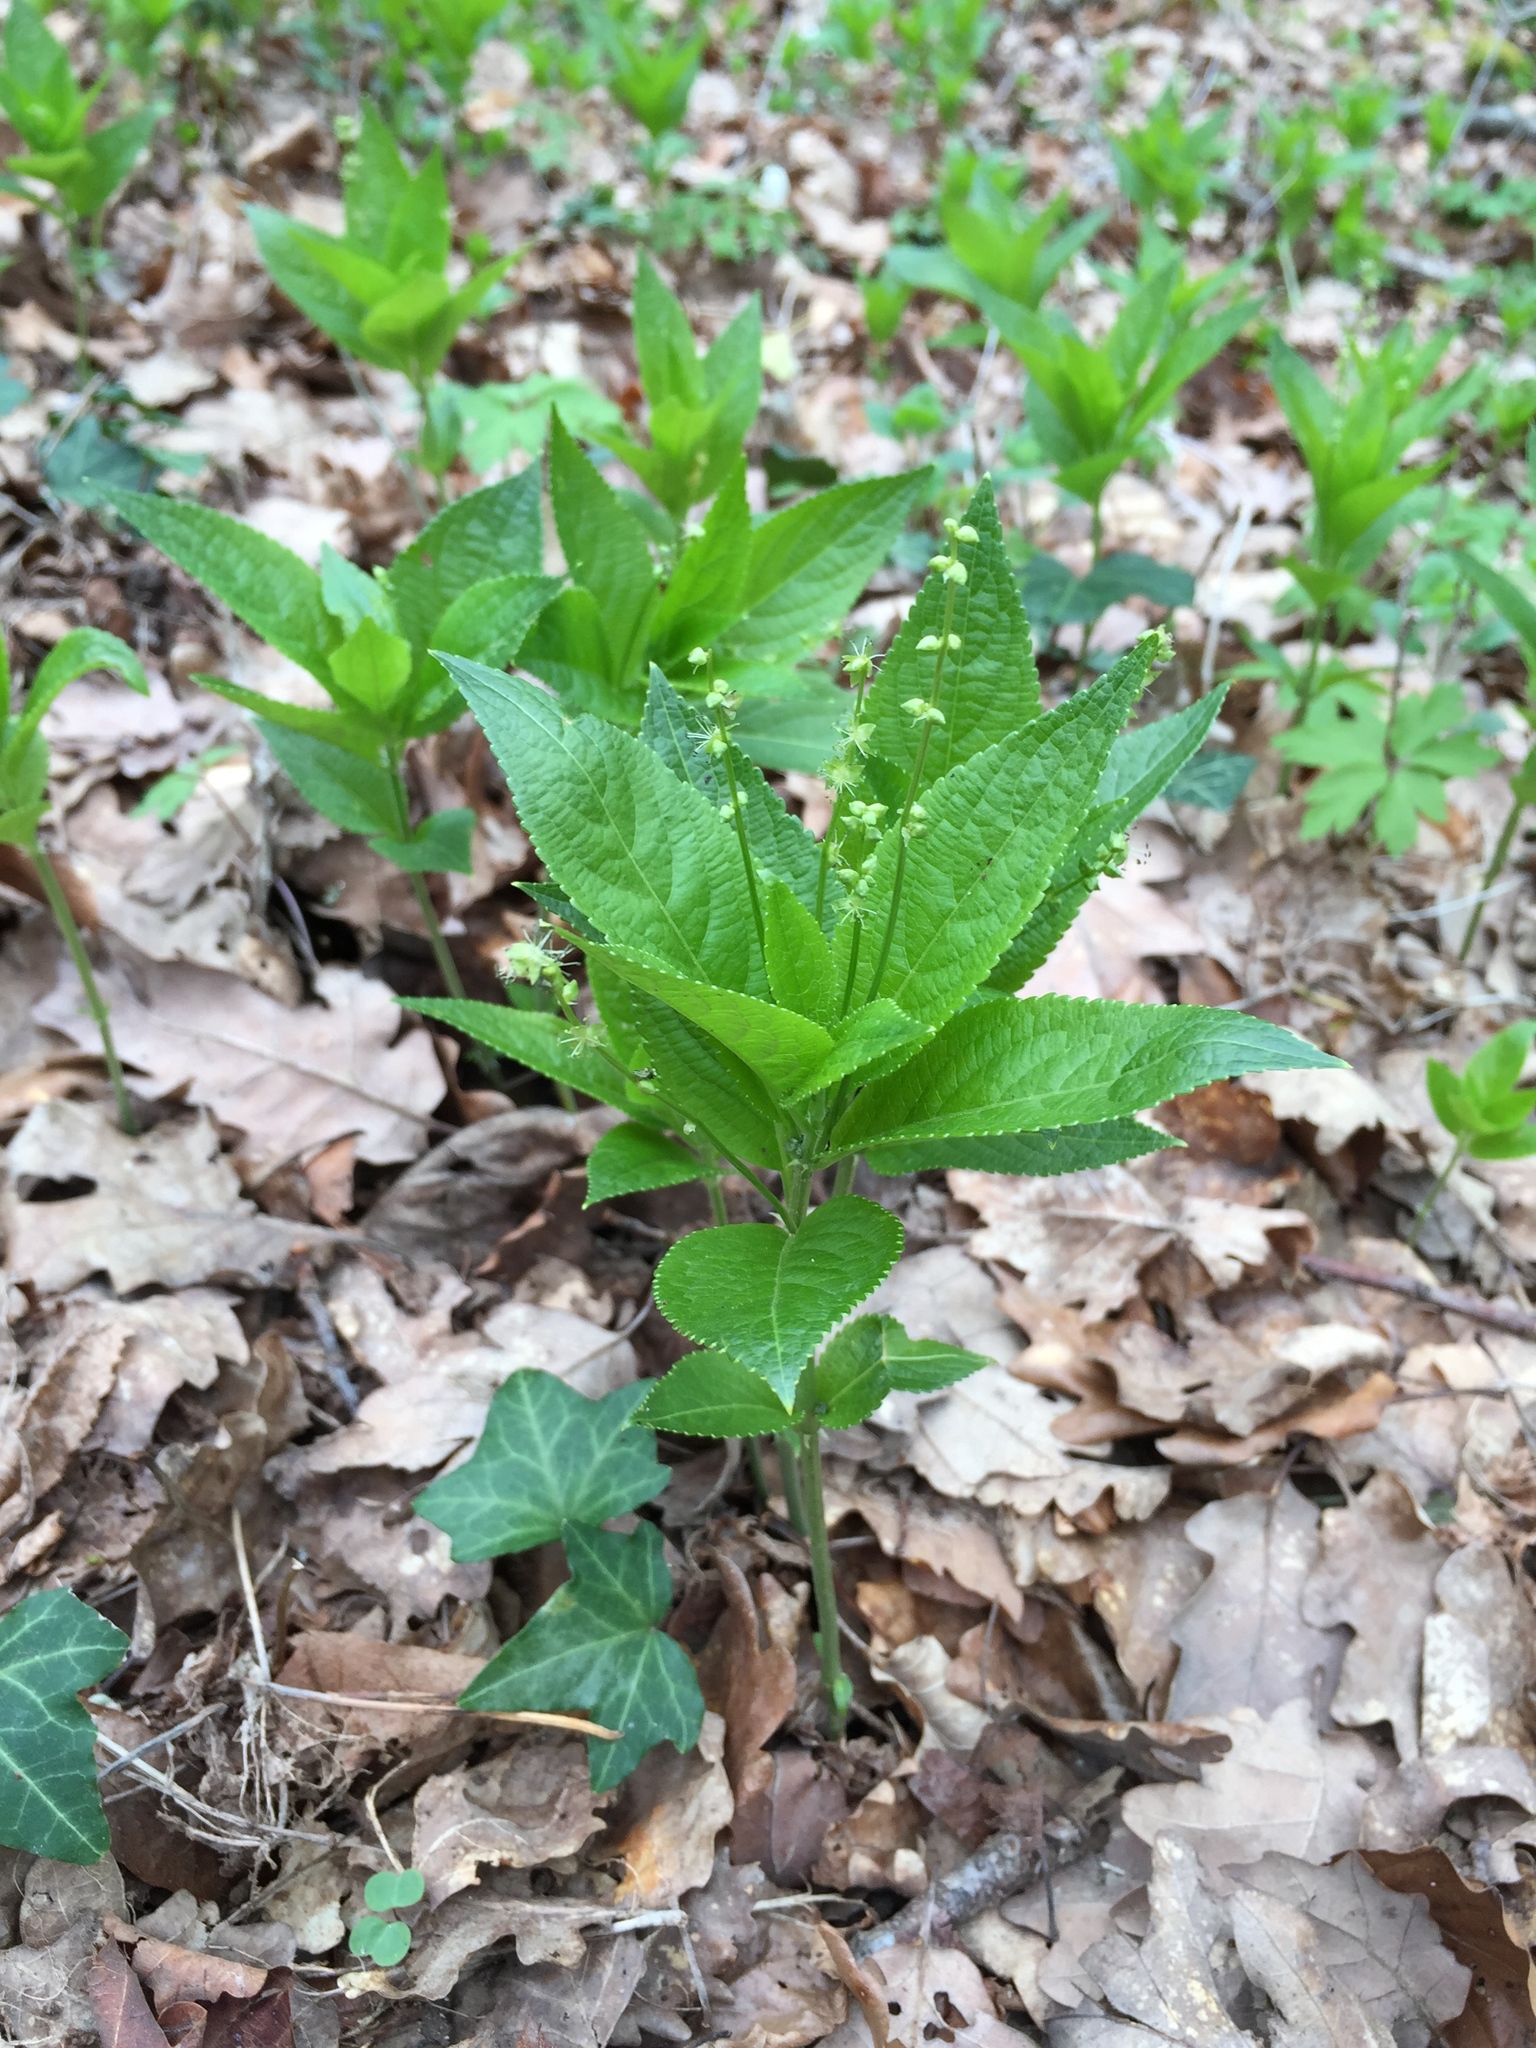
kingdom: Plantae
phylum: Tracheophyta
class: Magnoliopsida
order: Malpighiales
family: Euphorbiaceae
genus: Mercurialis
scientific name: Mercurialis perennis
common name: Dog mercury
